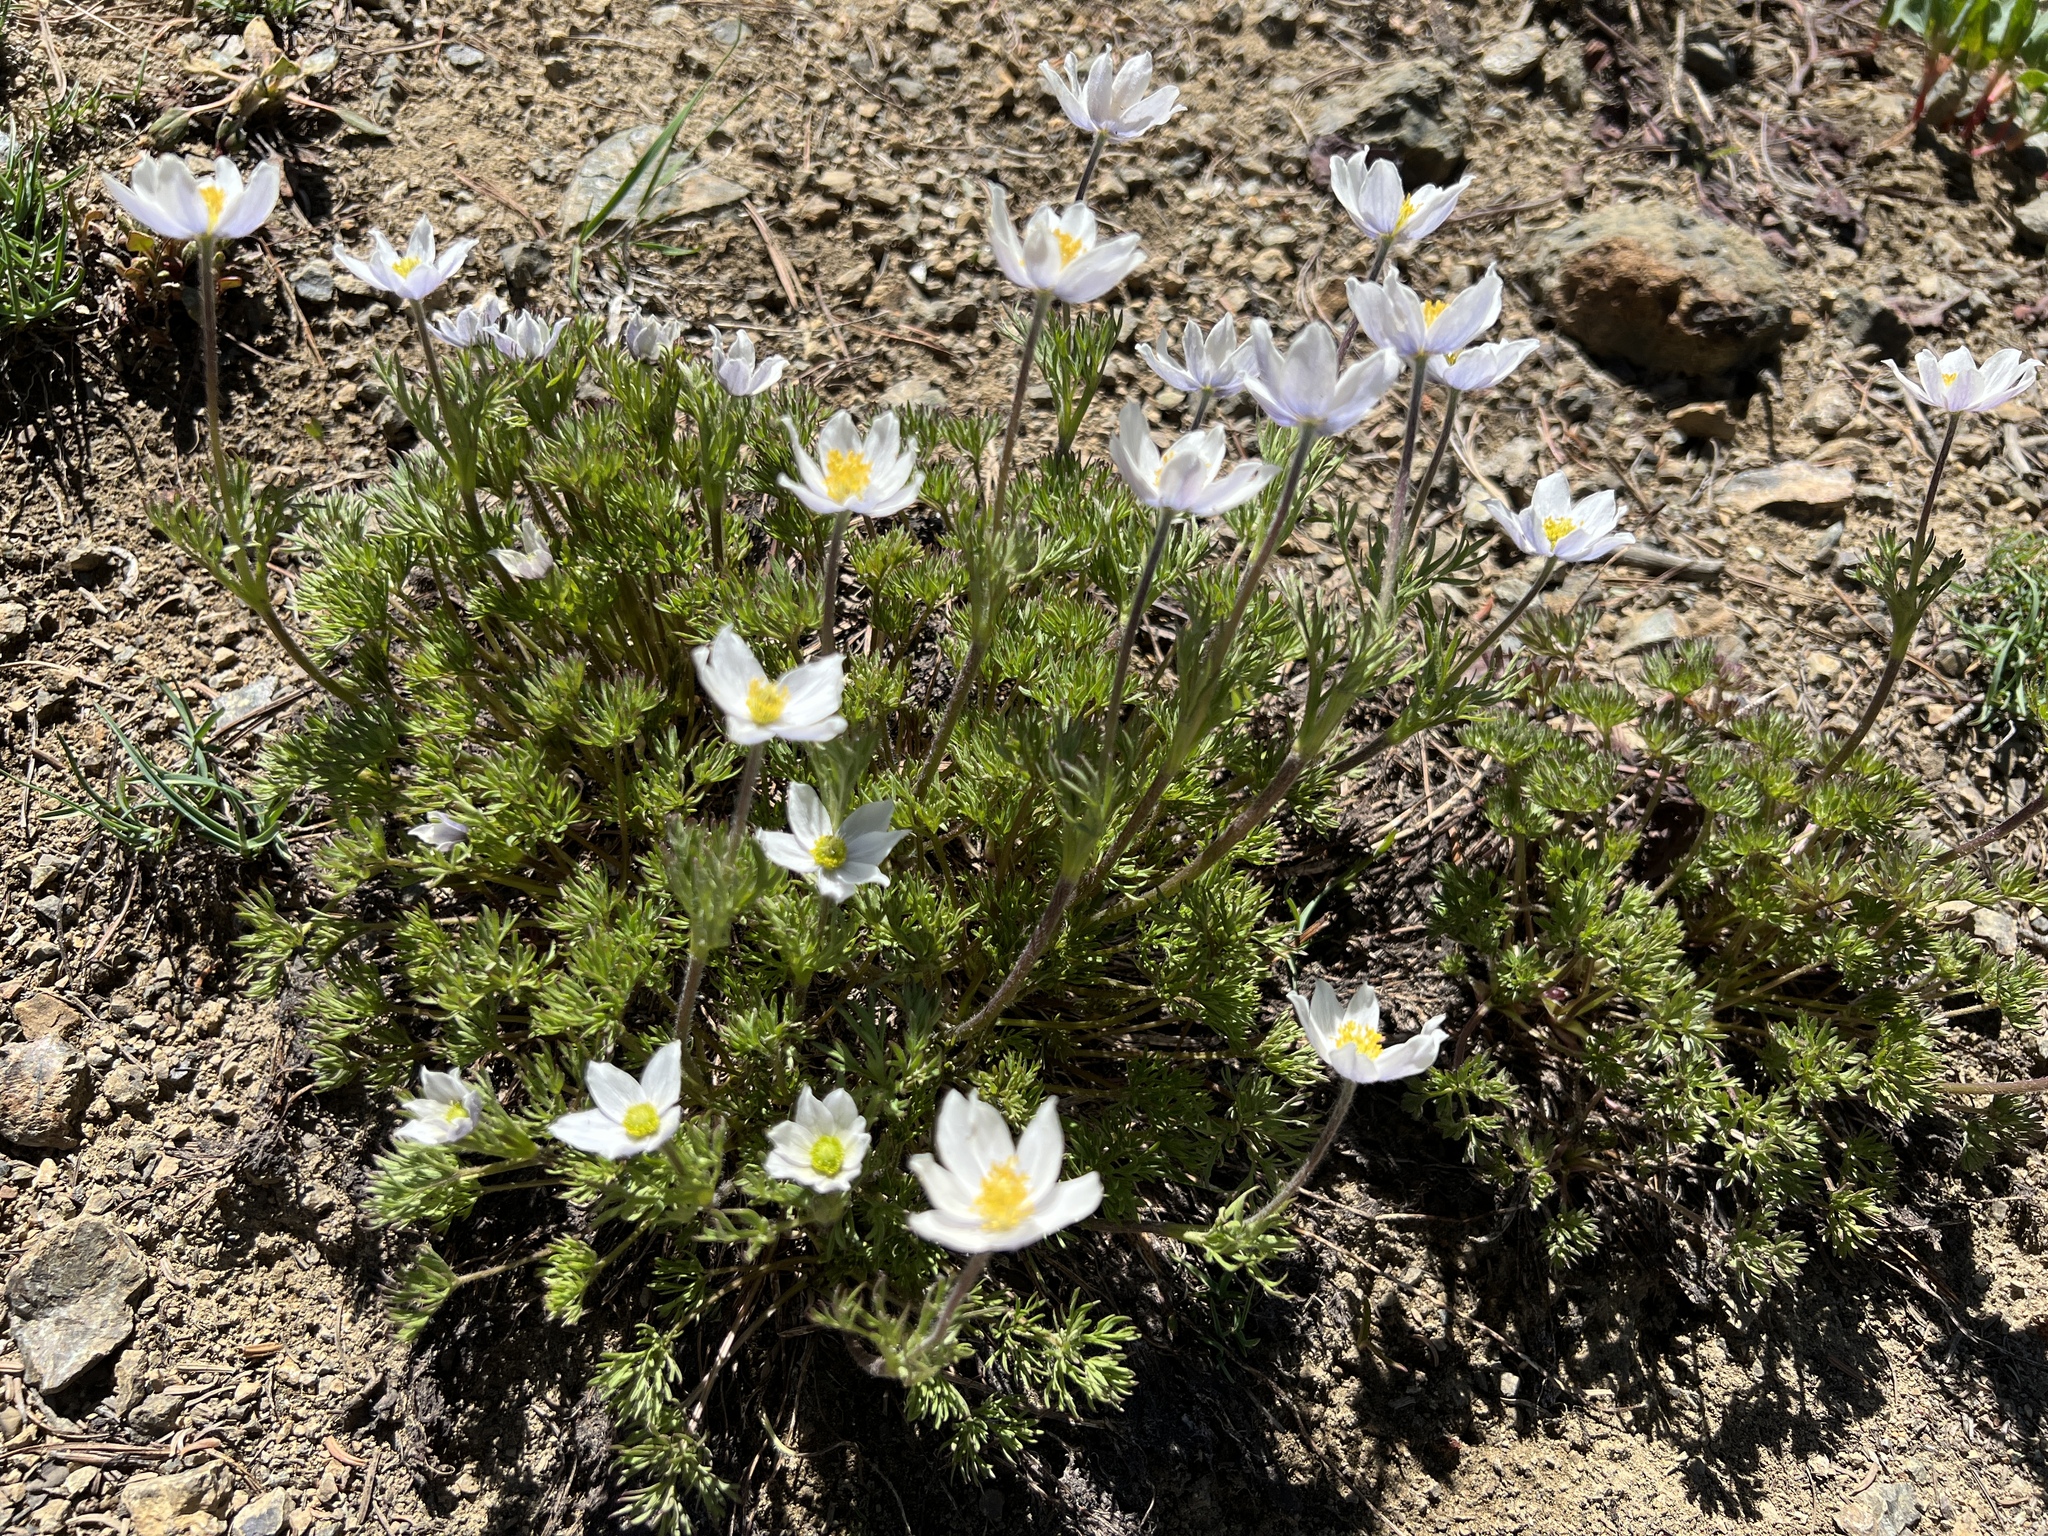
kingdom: Plantae
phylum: Tracheophyta
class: Magnoliopsida
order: Ranunculales
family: Ranunculaceae
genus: Anemone
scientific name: Anemone drummondii
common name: Drummond's anemone
